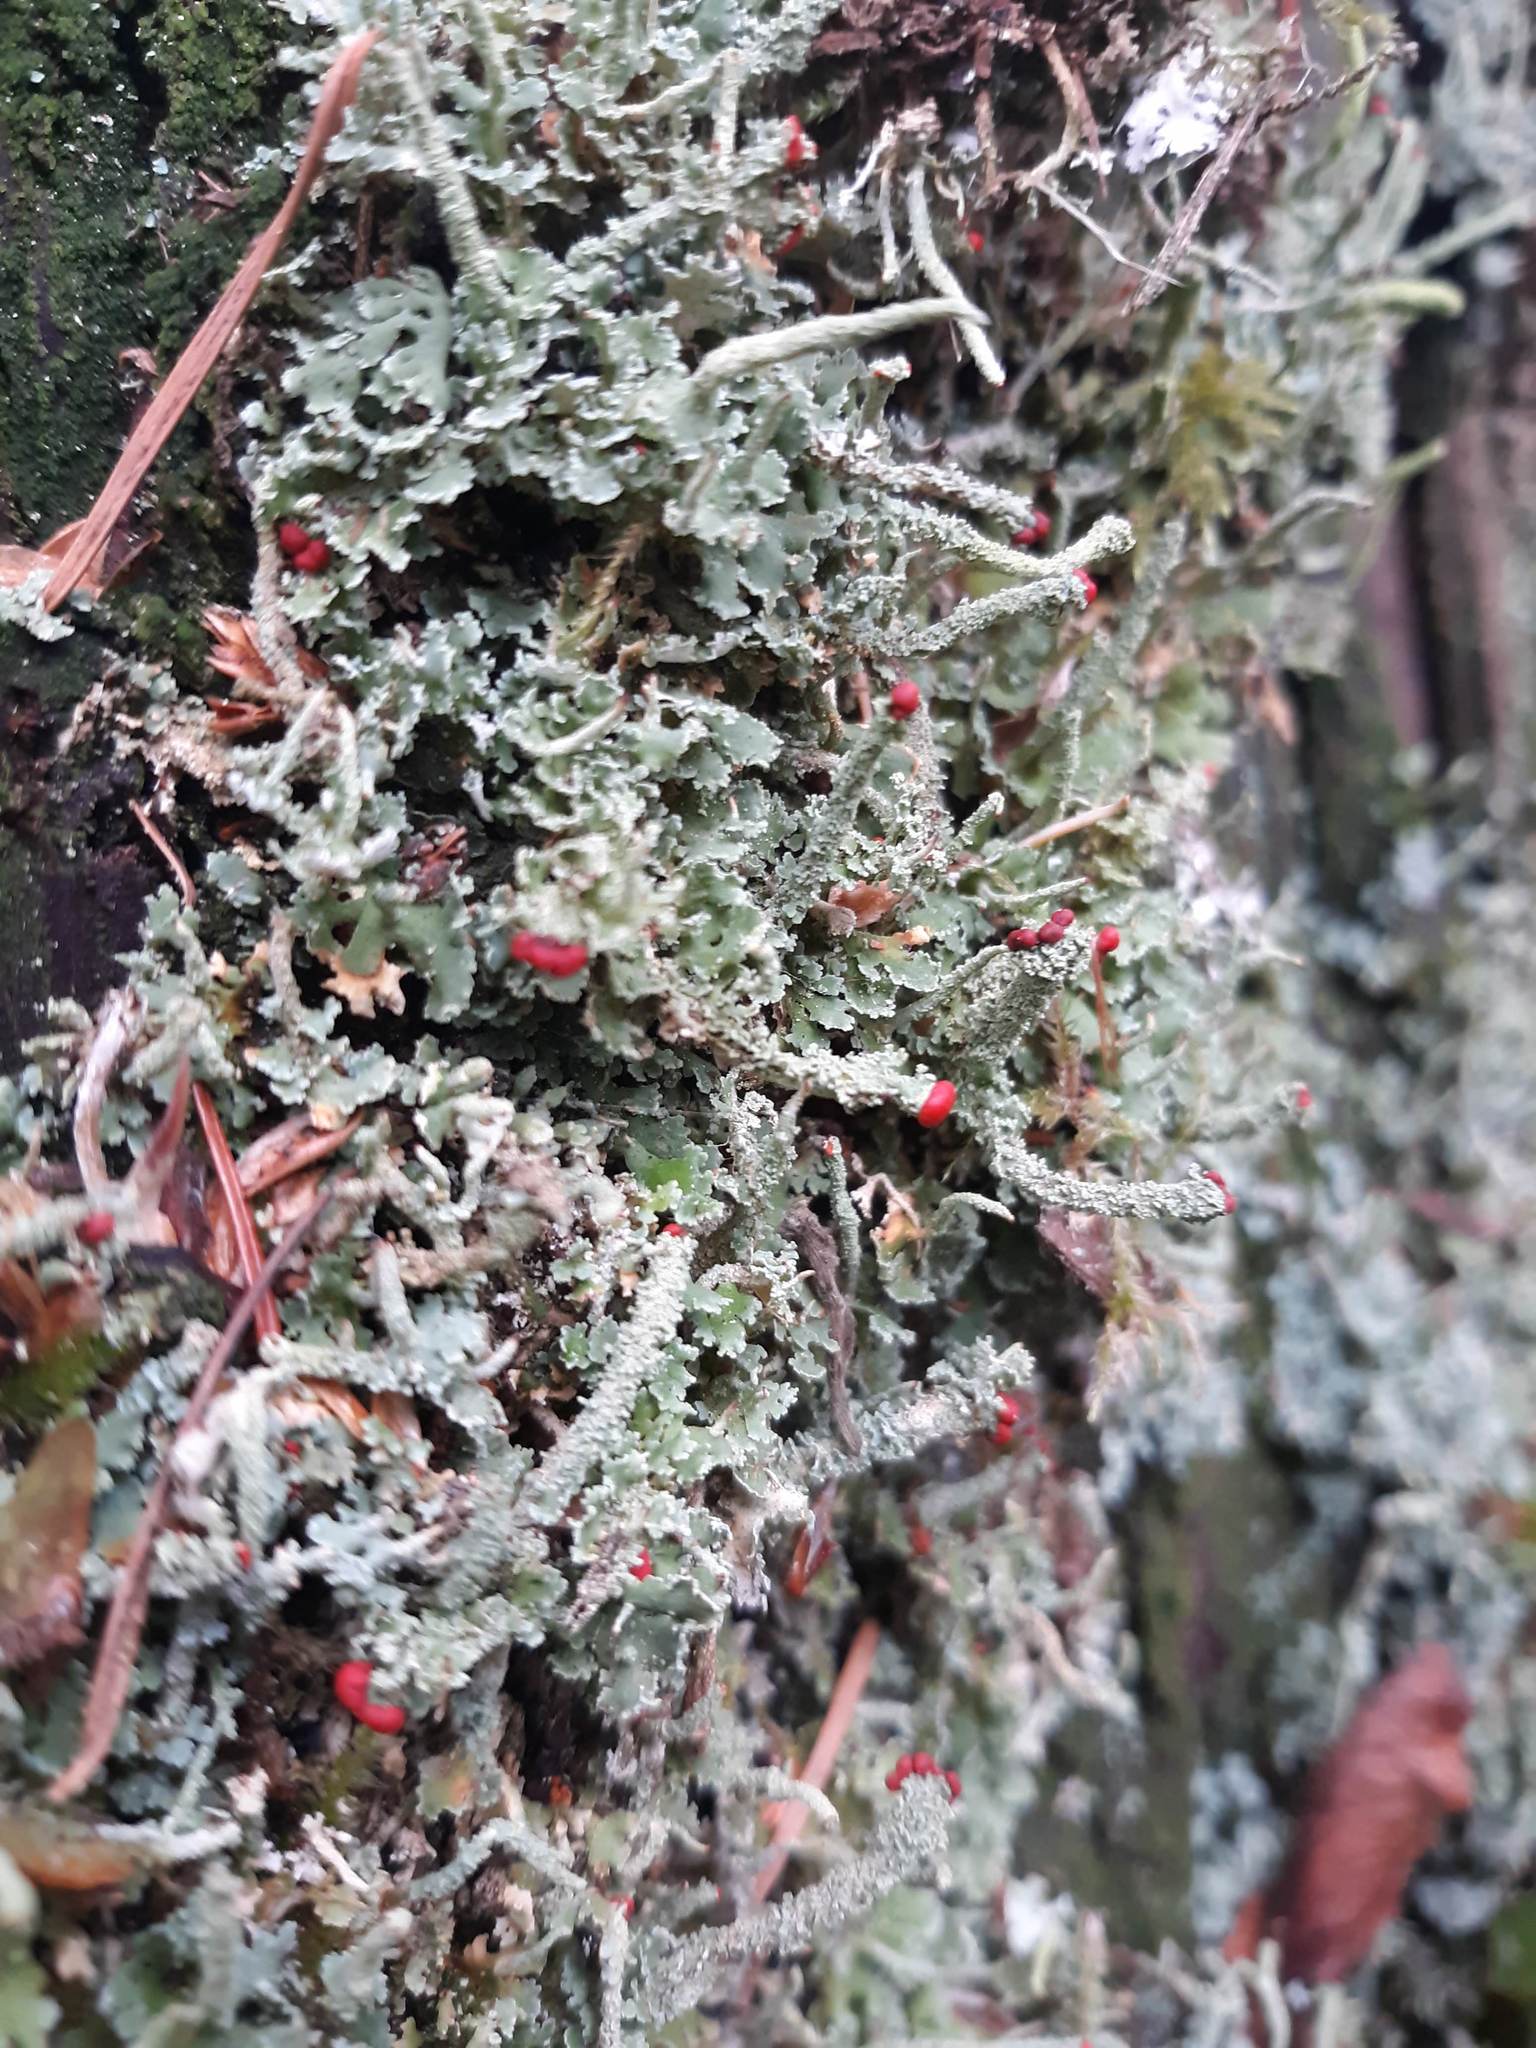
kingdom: Fungi
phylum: Ascomycota
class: Lecanoromycetes
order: Lecanorales
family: Cladoniaceae
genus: Cladonia
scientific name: Cladonia macilenta
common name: Lipstick powderhorn
